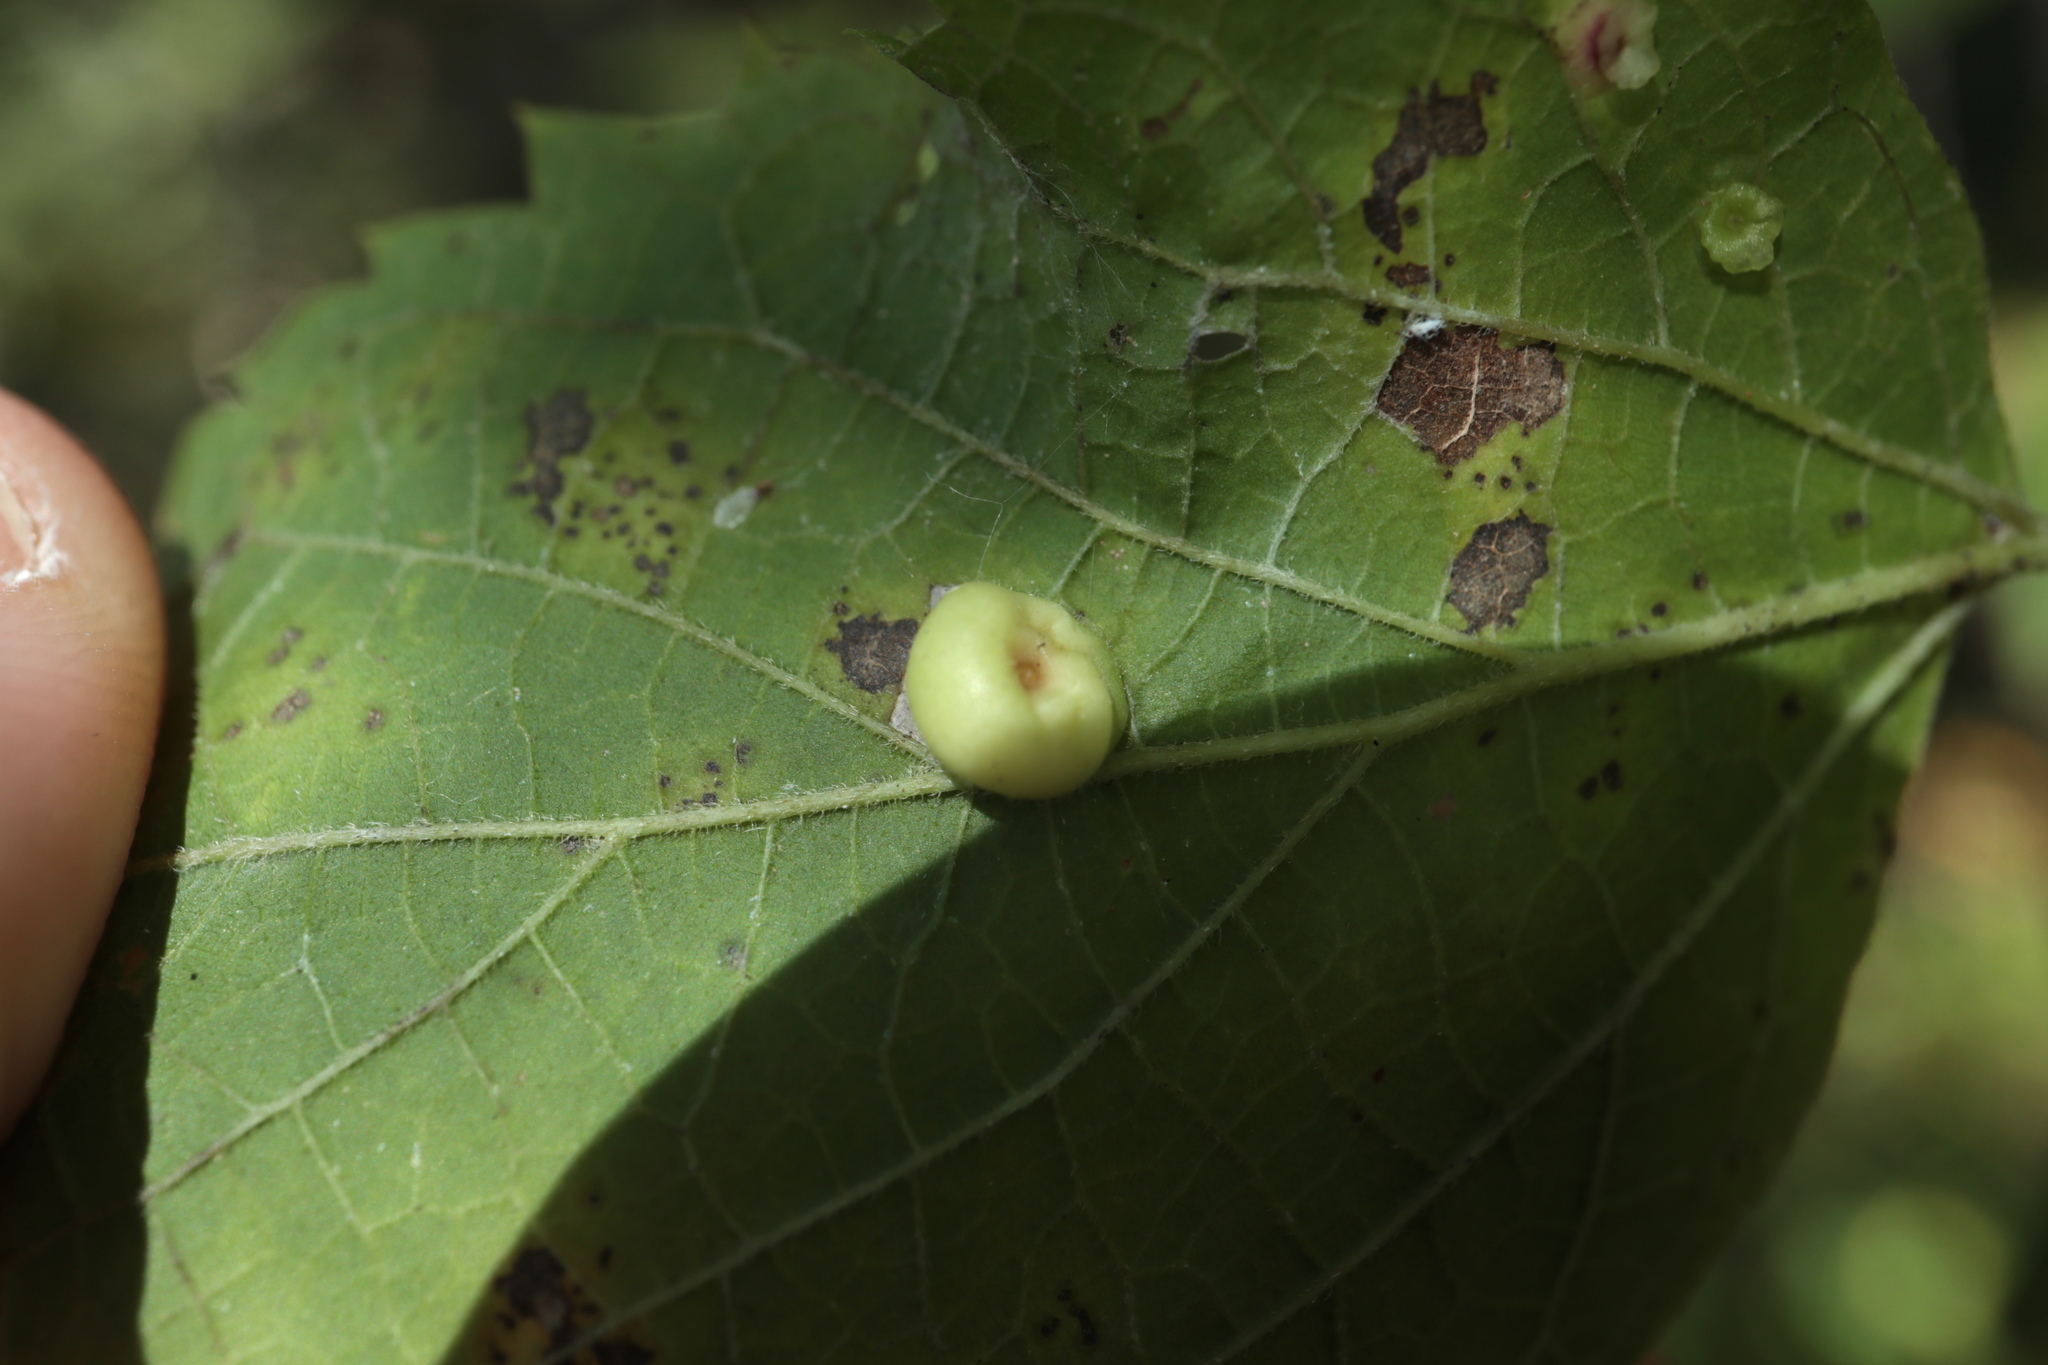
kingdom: Animalia
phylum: Arthropoda
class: Insecta
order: Hemiptera
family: Aphalaridae
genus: Pachypsylla
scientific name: Pachypsylla celtidismamma
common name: Hackberry nipplegall psyllid
